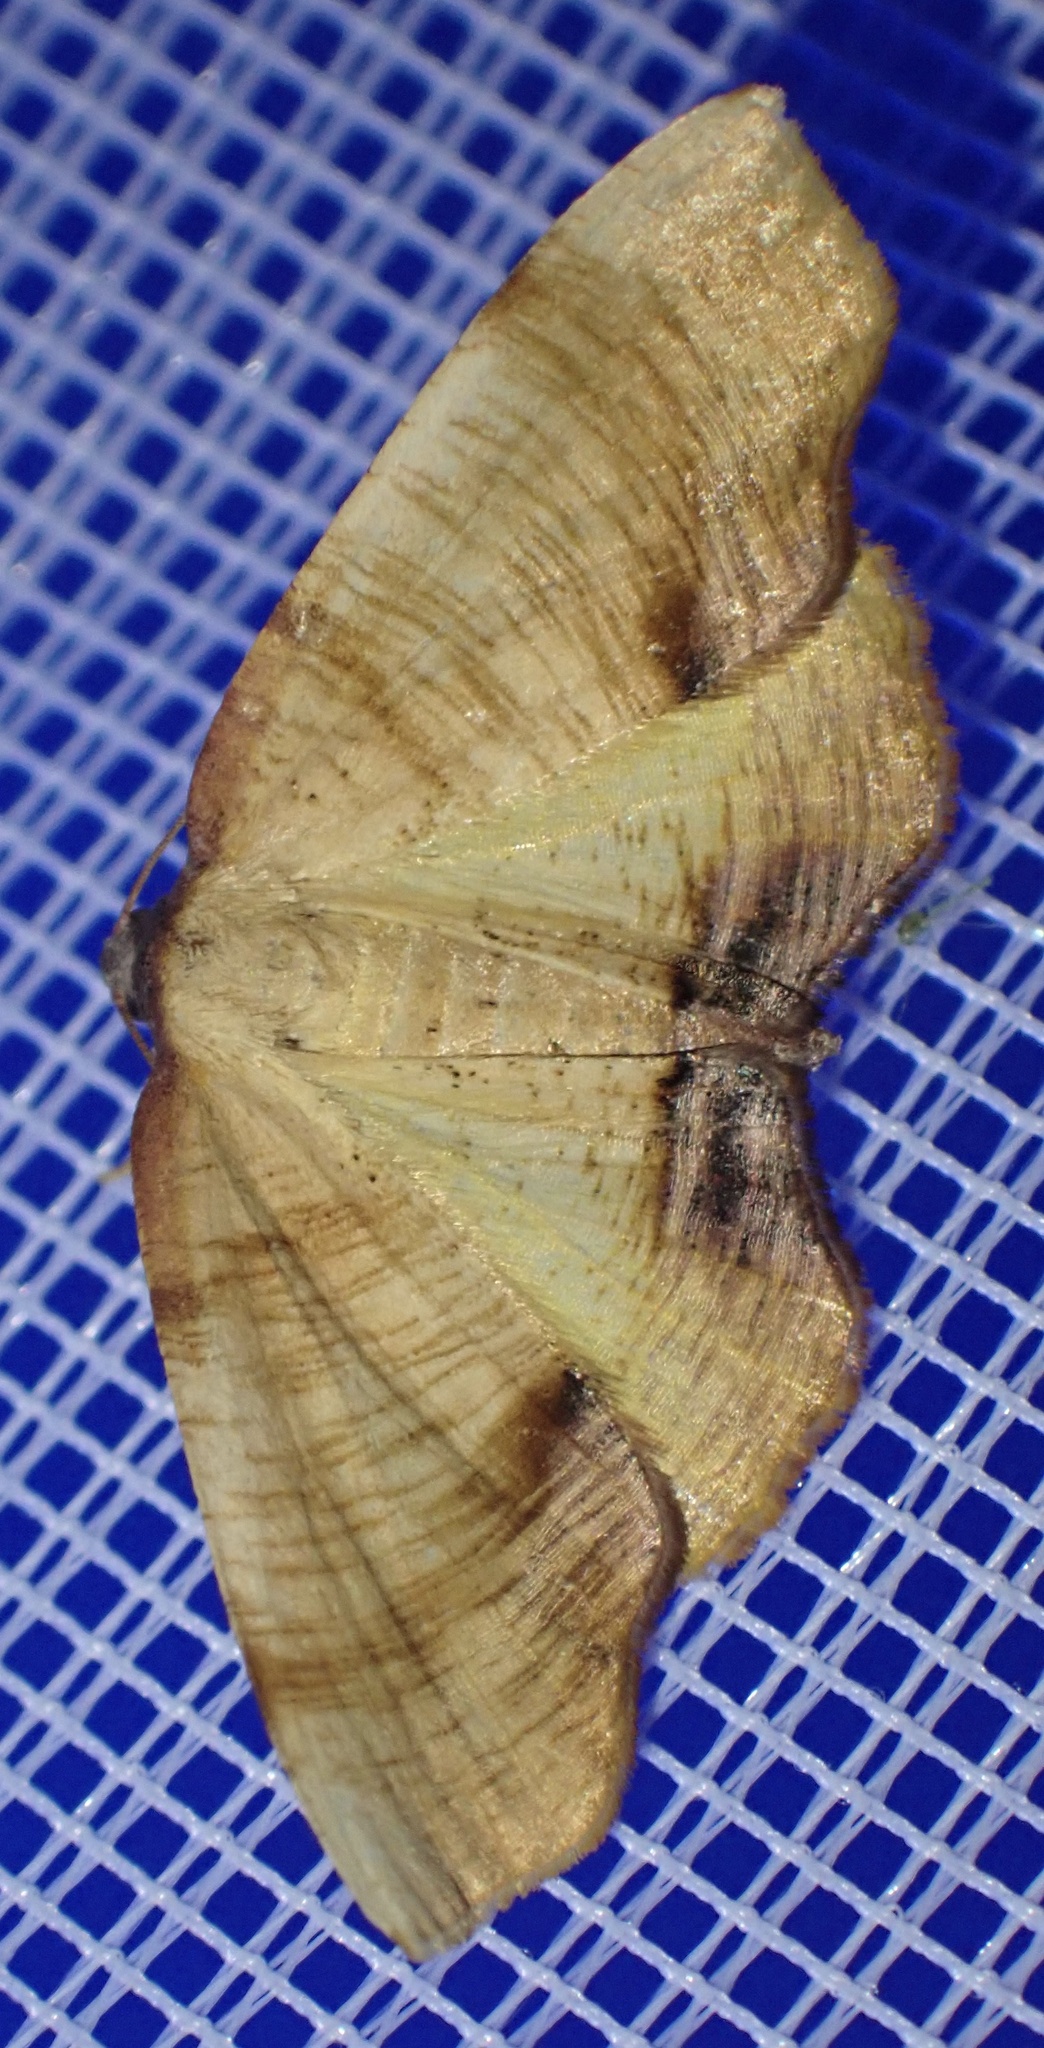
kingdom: Animalia
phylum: Arthropoda
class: Insecta
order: Lepidoptera
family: Geometridae
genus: Plagodis
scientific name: Plagodis dolabraria
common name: Scorched wing
